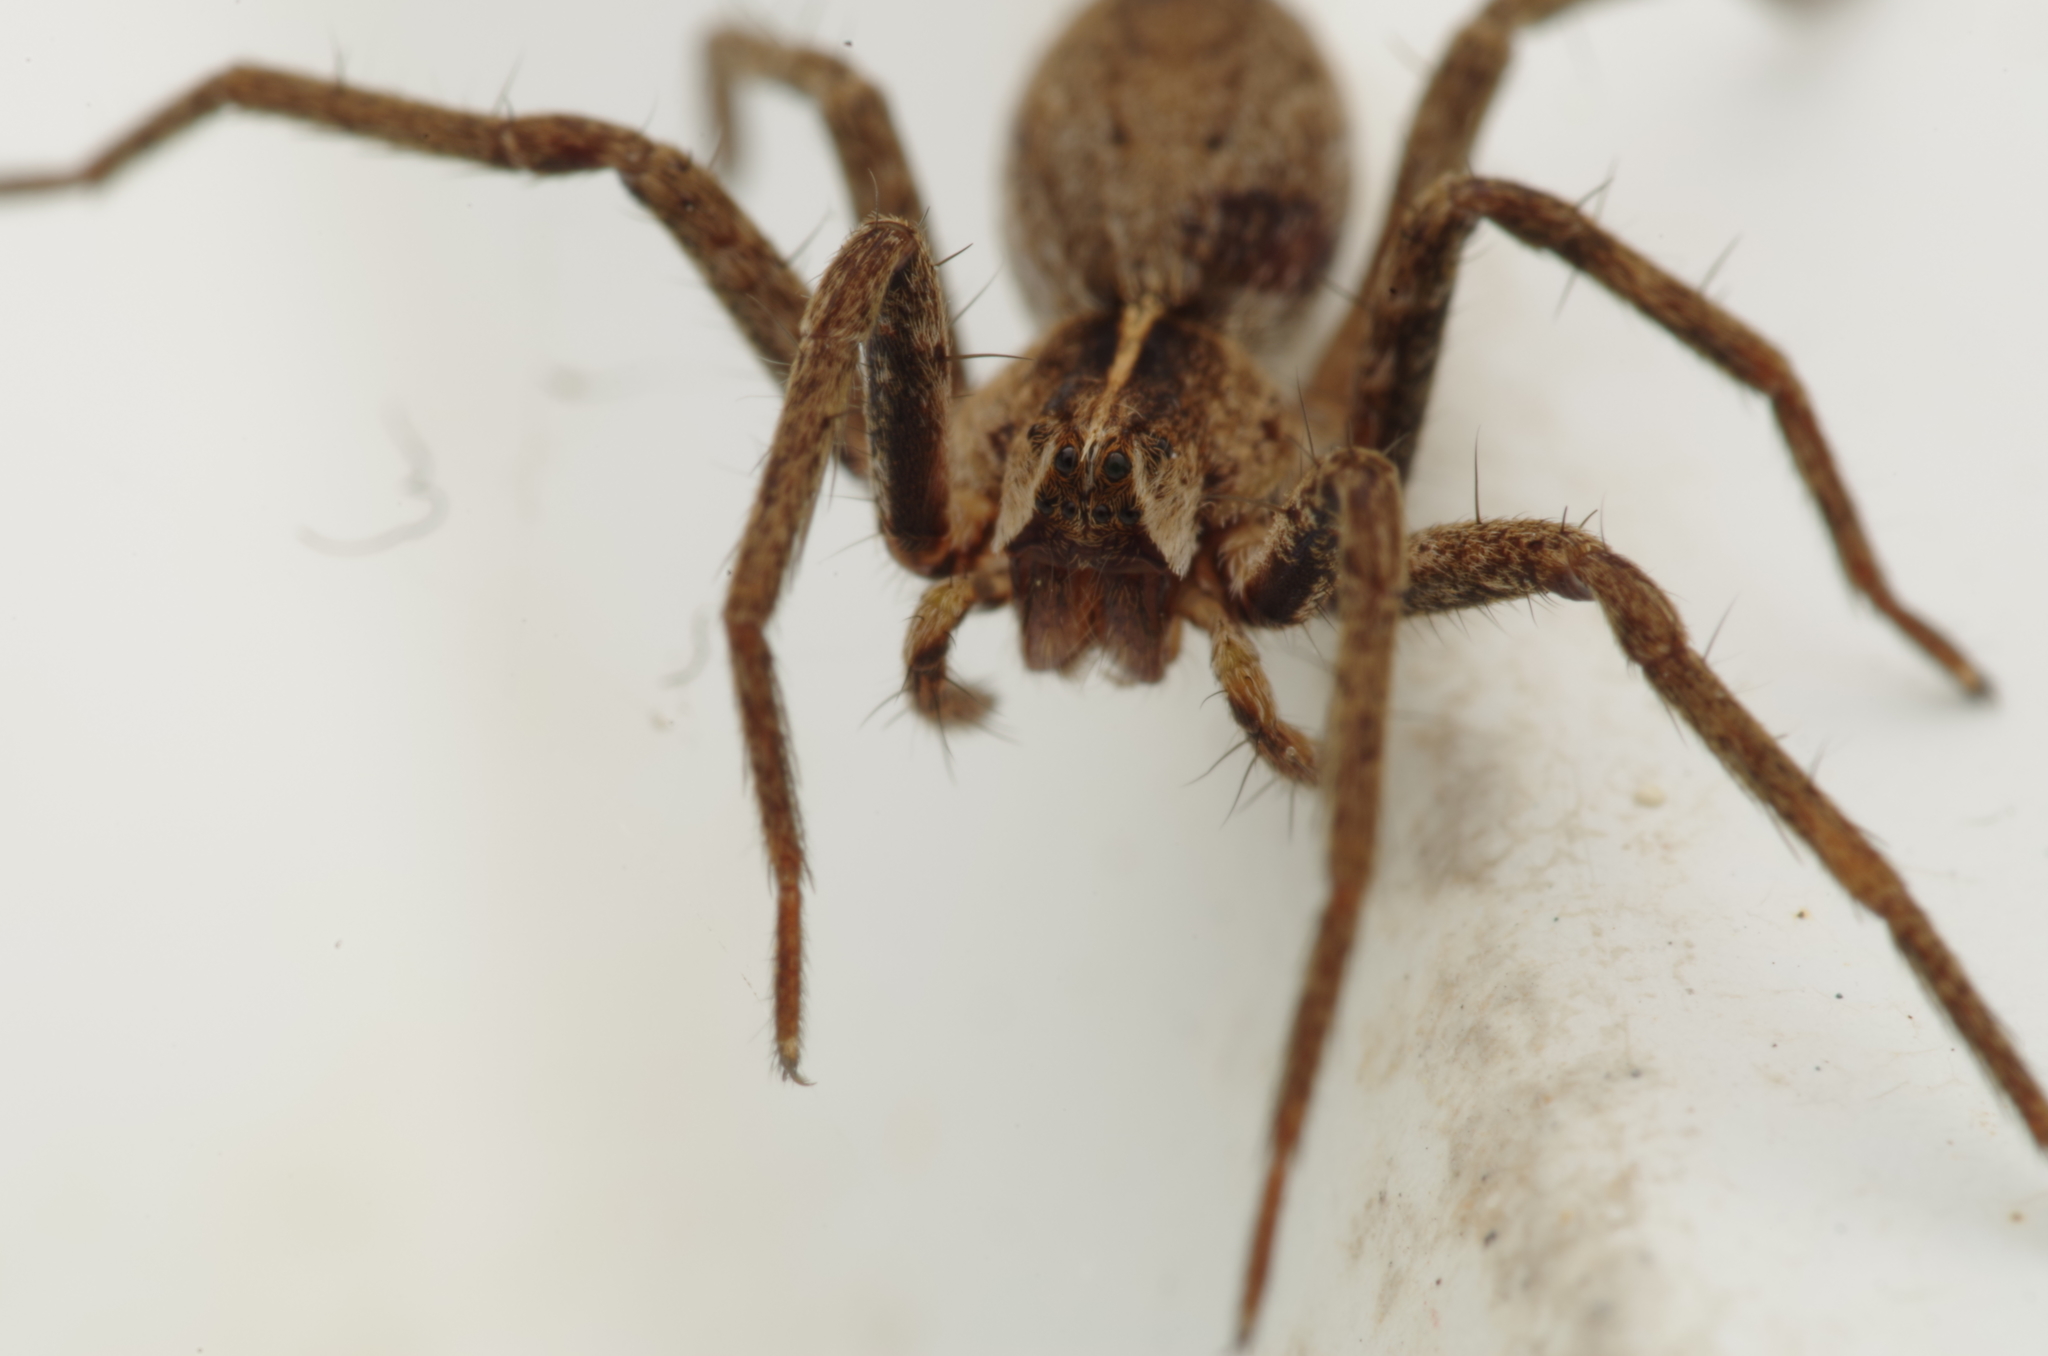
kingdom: Animalia
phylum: Arthropoda
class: Arachnida
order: Araneae
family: Pisauridae
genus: Pisaura
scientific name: Pisaura mirabilis
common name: Tent spider
